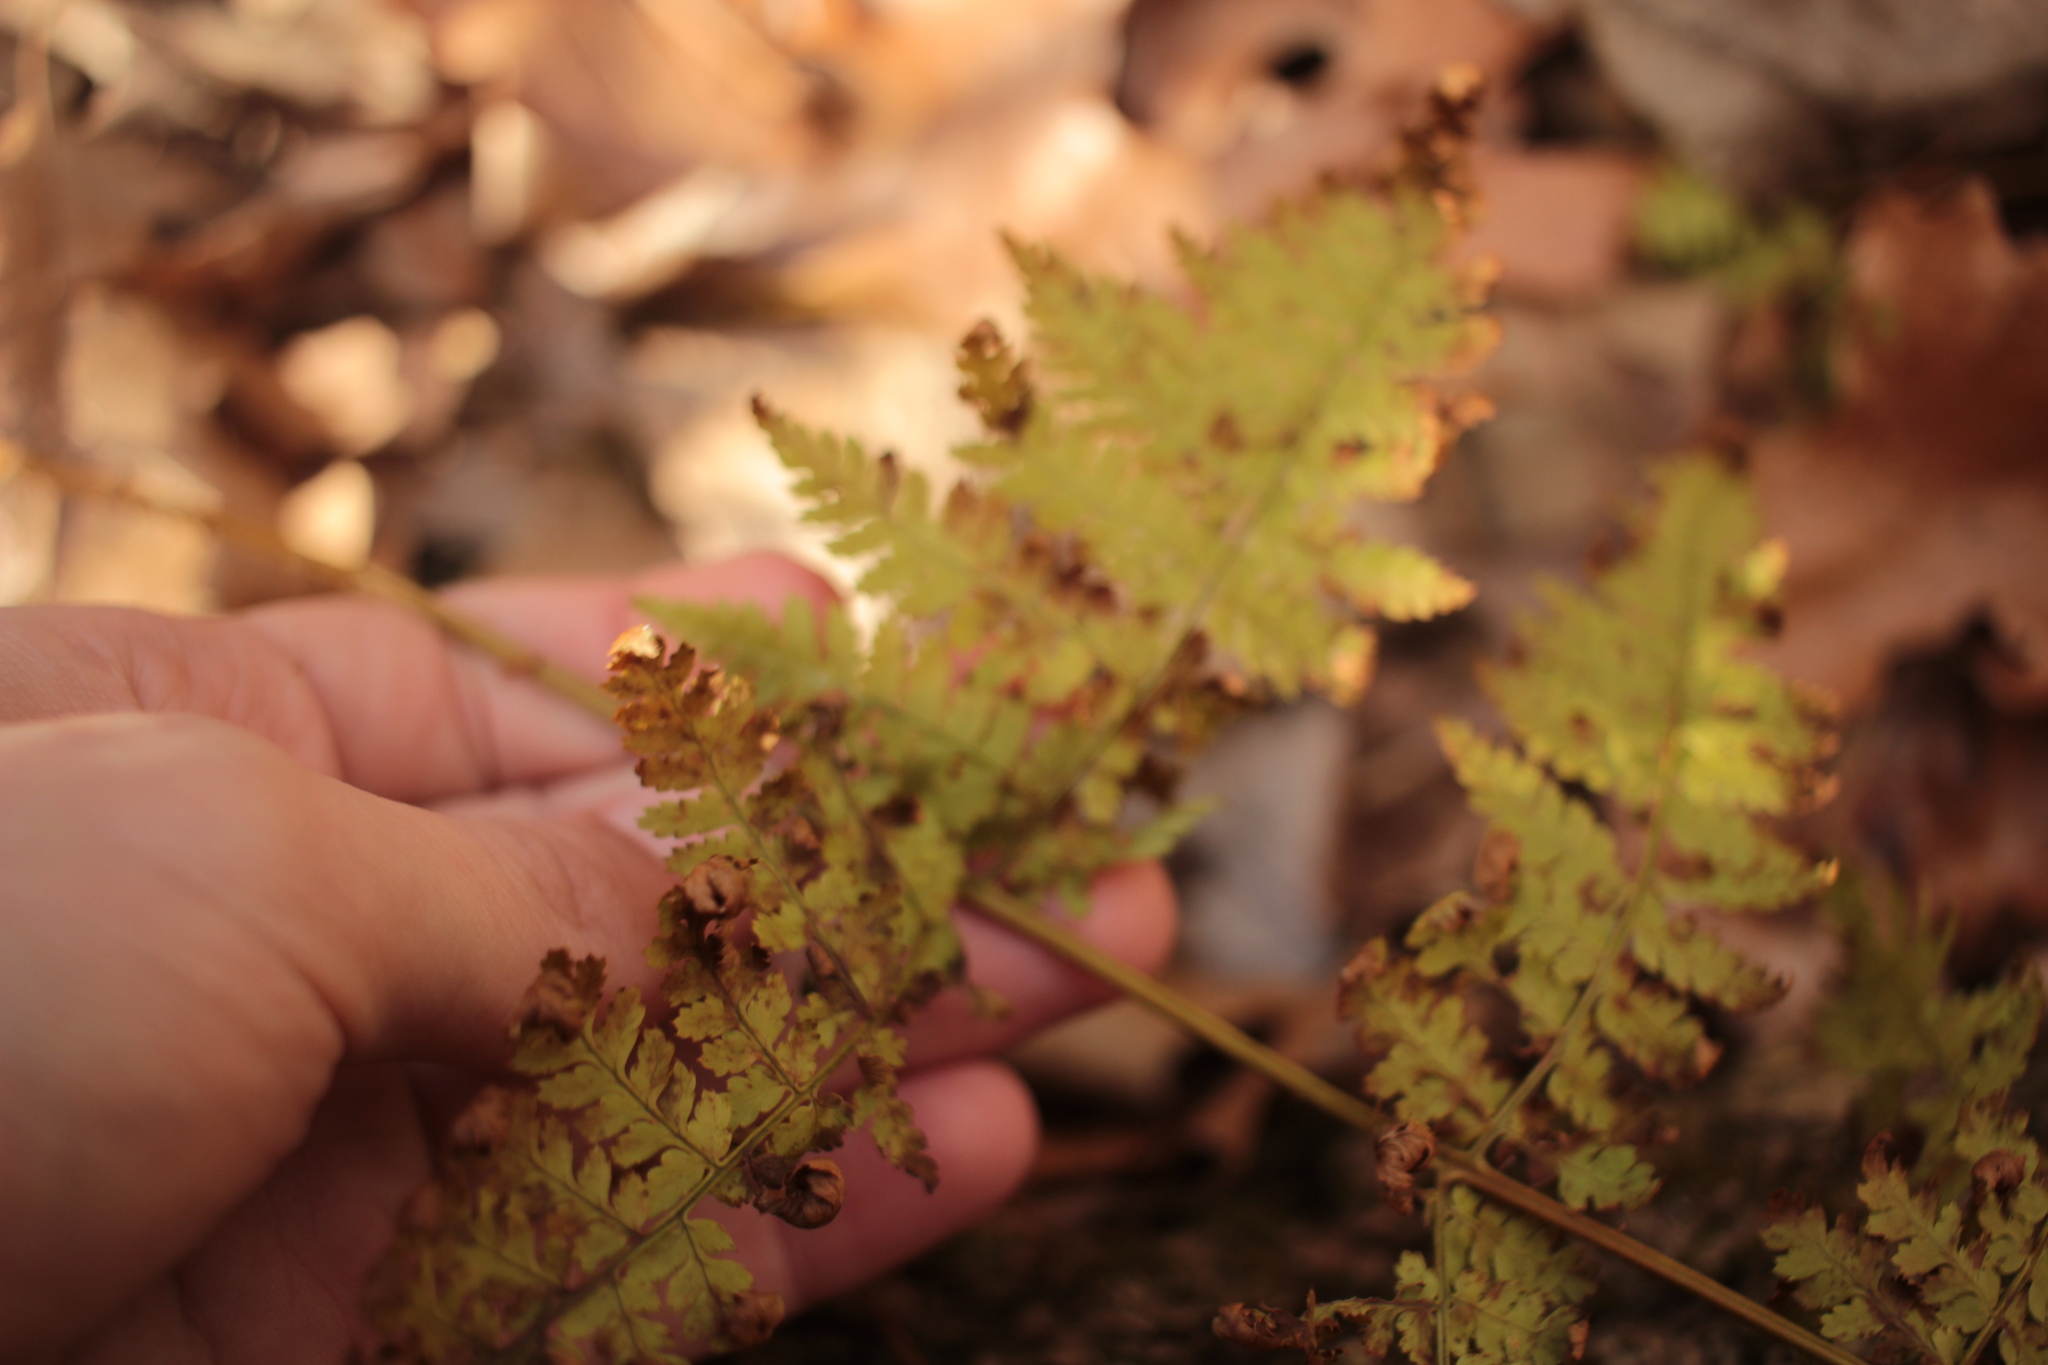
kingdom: Plantae
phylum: Tracheophyta
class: Polypodiopsida
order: Polypodiales
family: Dryopteridaceae
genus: Dryopteris
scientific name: Dryopteris intermedia
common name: Evergreen wood fern
